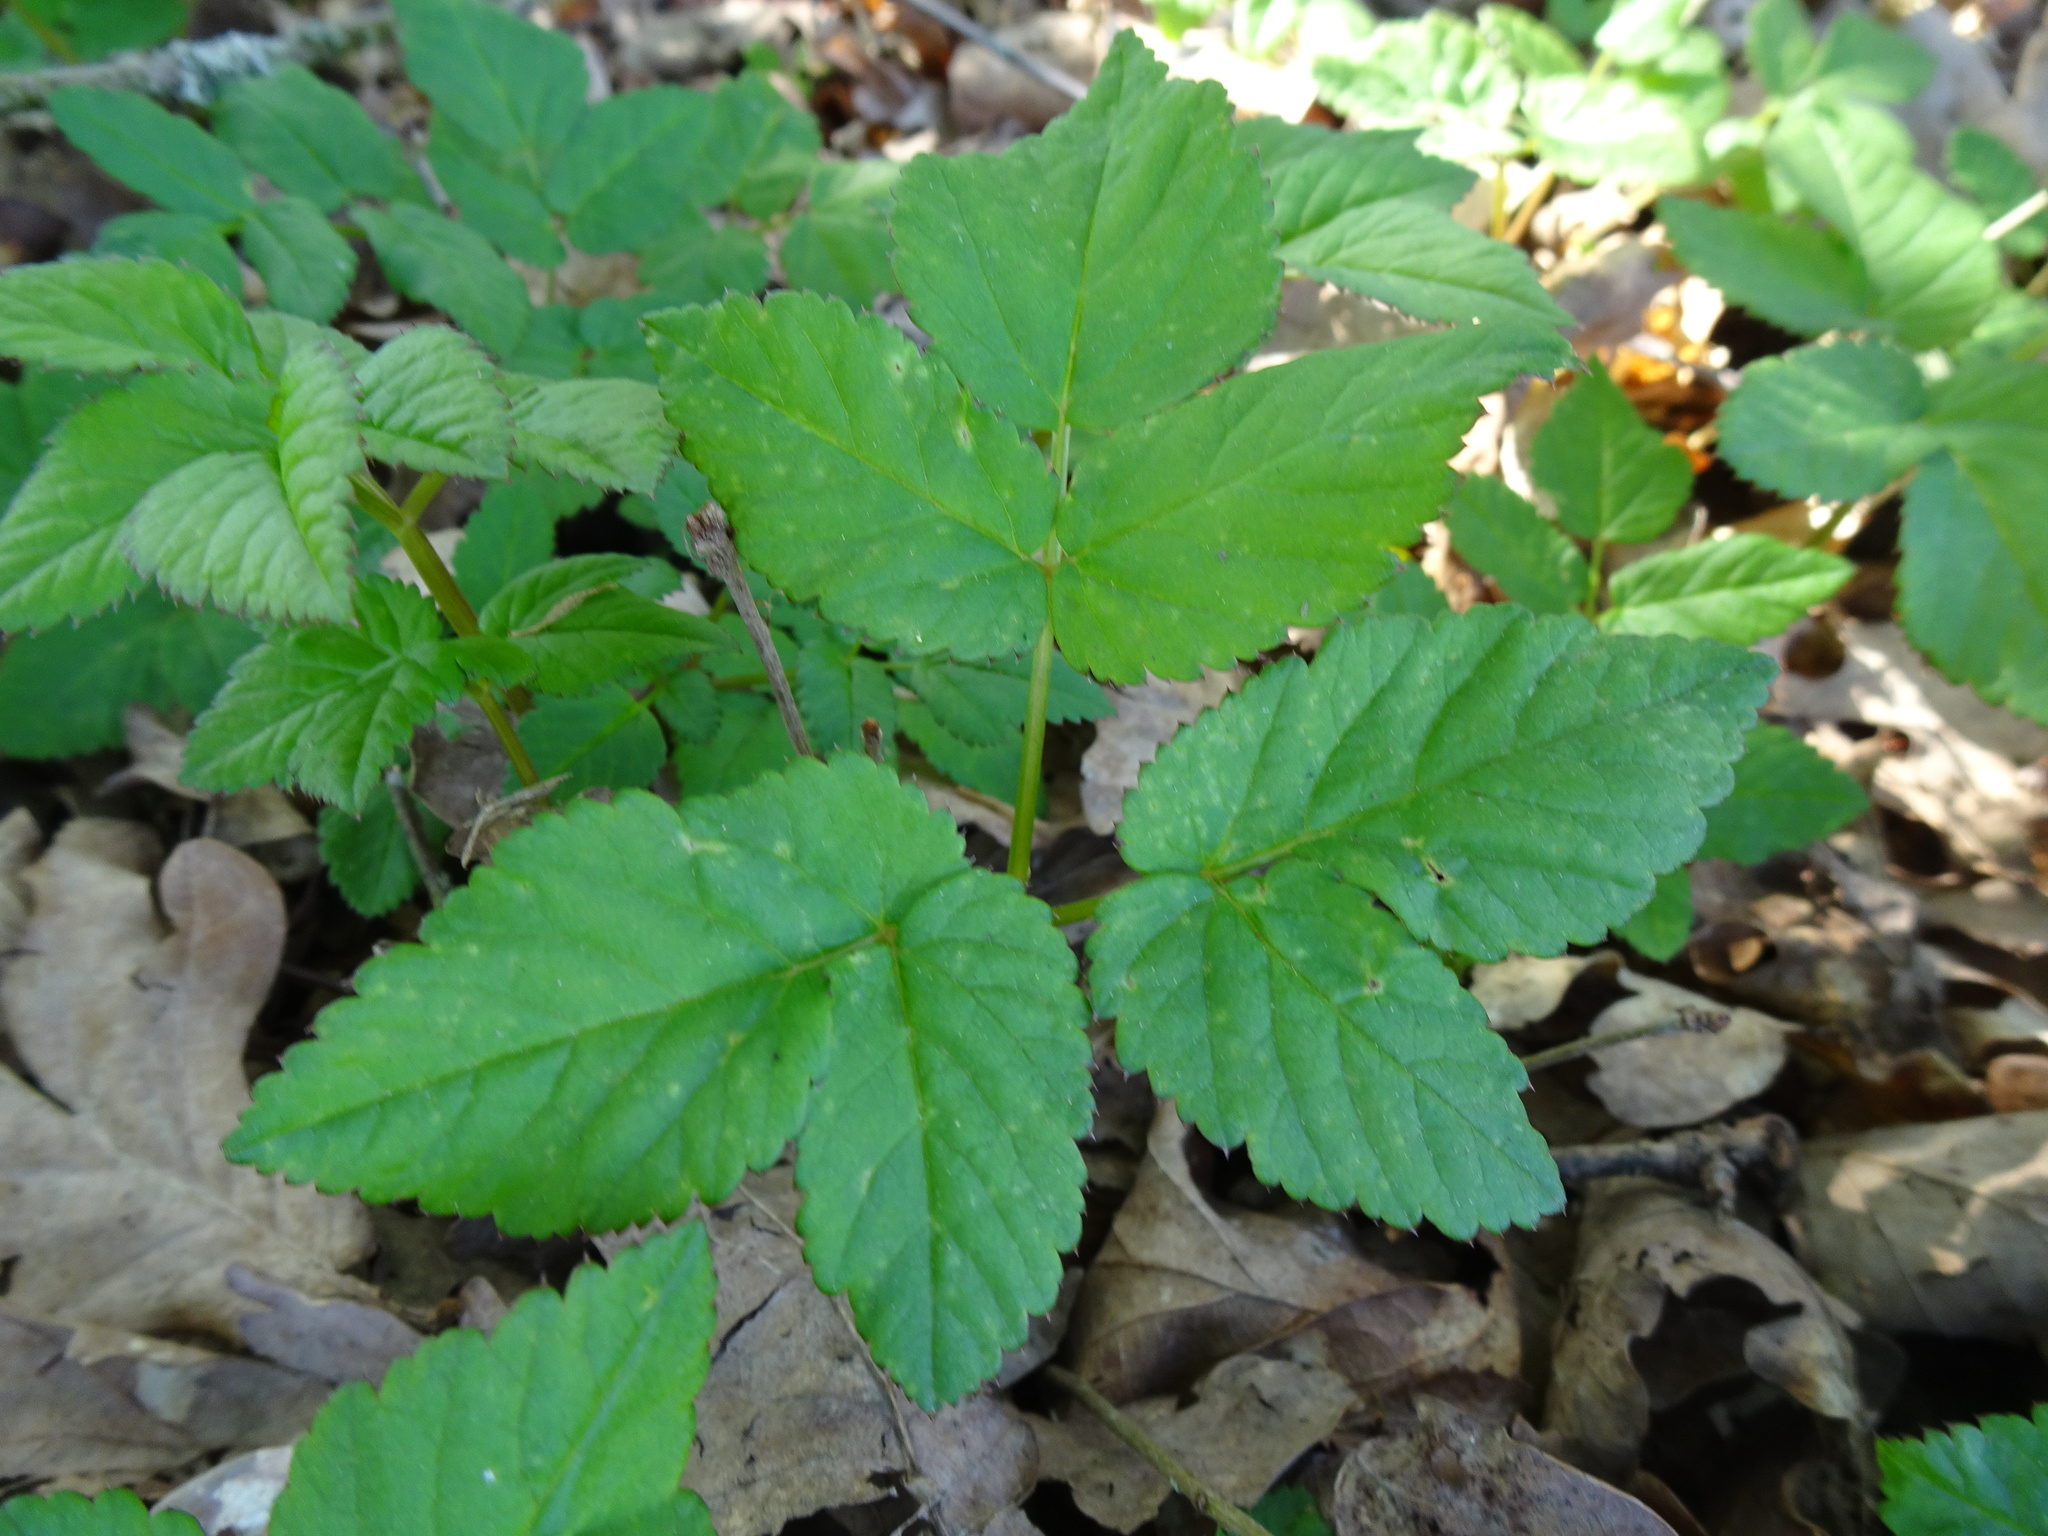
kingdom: Plantae
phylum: Tracheophyta
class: Magnoliopsida
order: Apiales
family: Apiaceae
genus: Aegopodium
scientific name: Aegopodium podagraria
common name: Ground-elder
